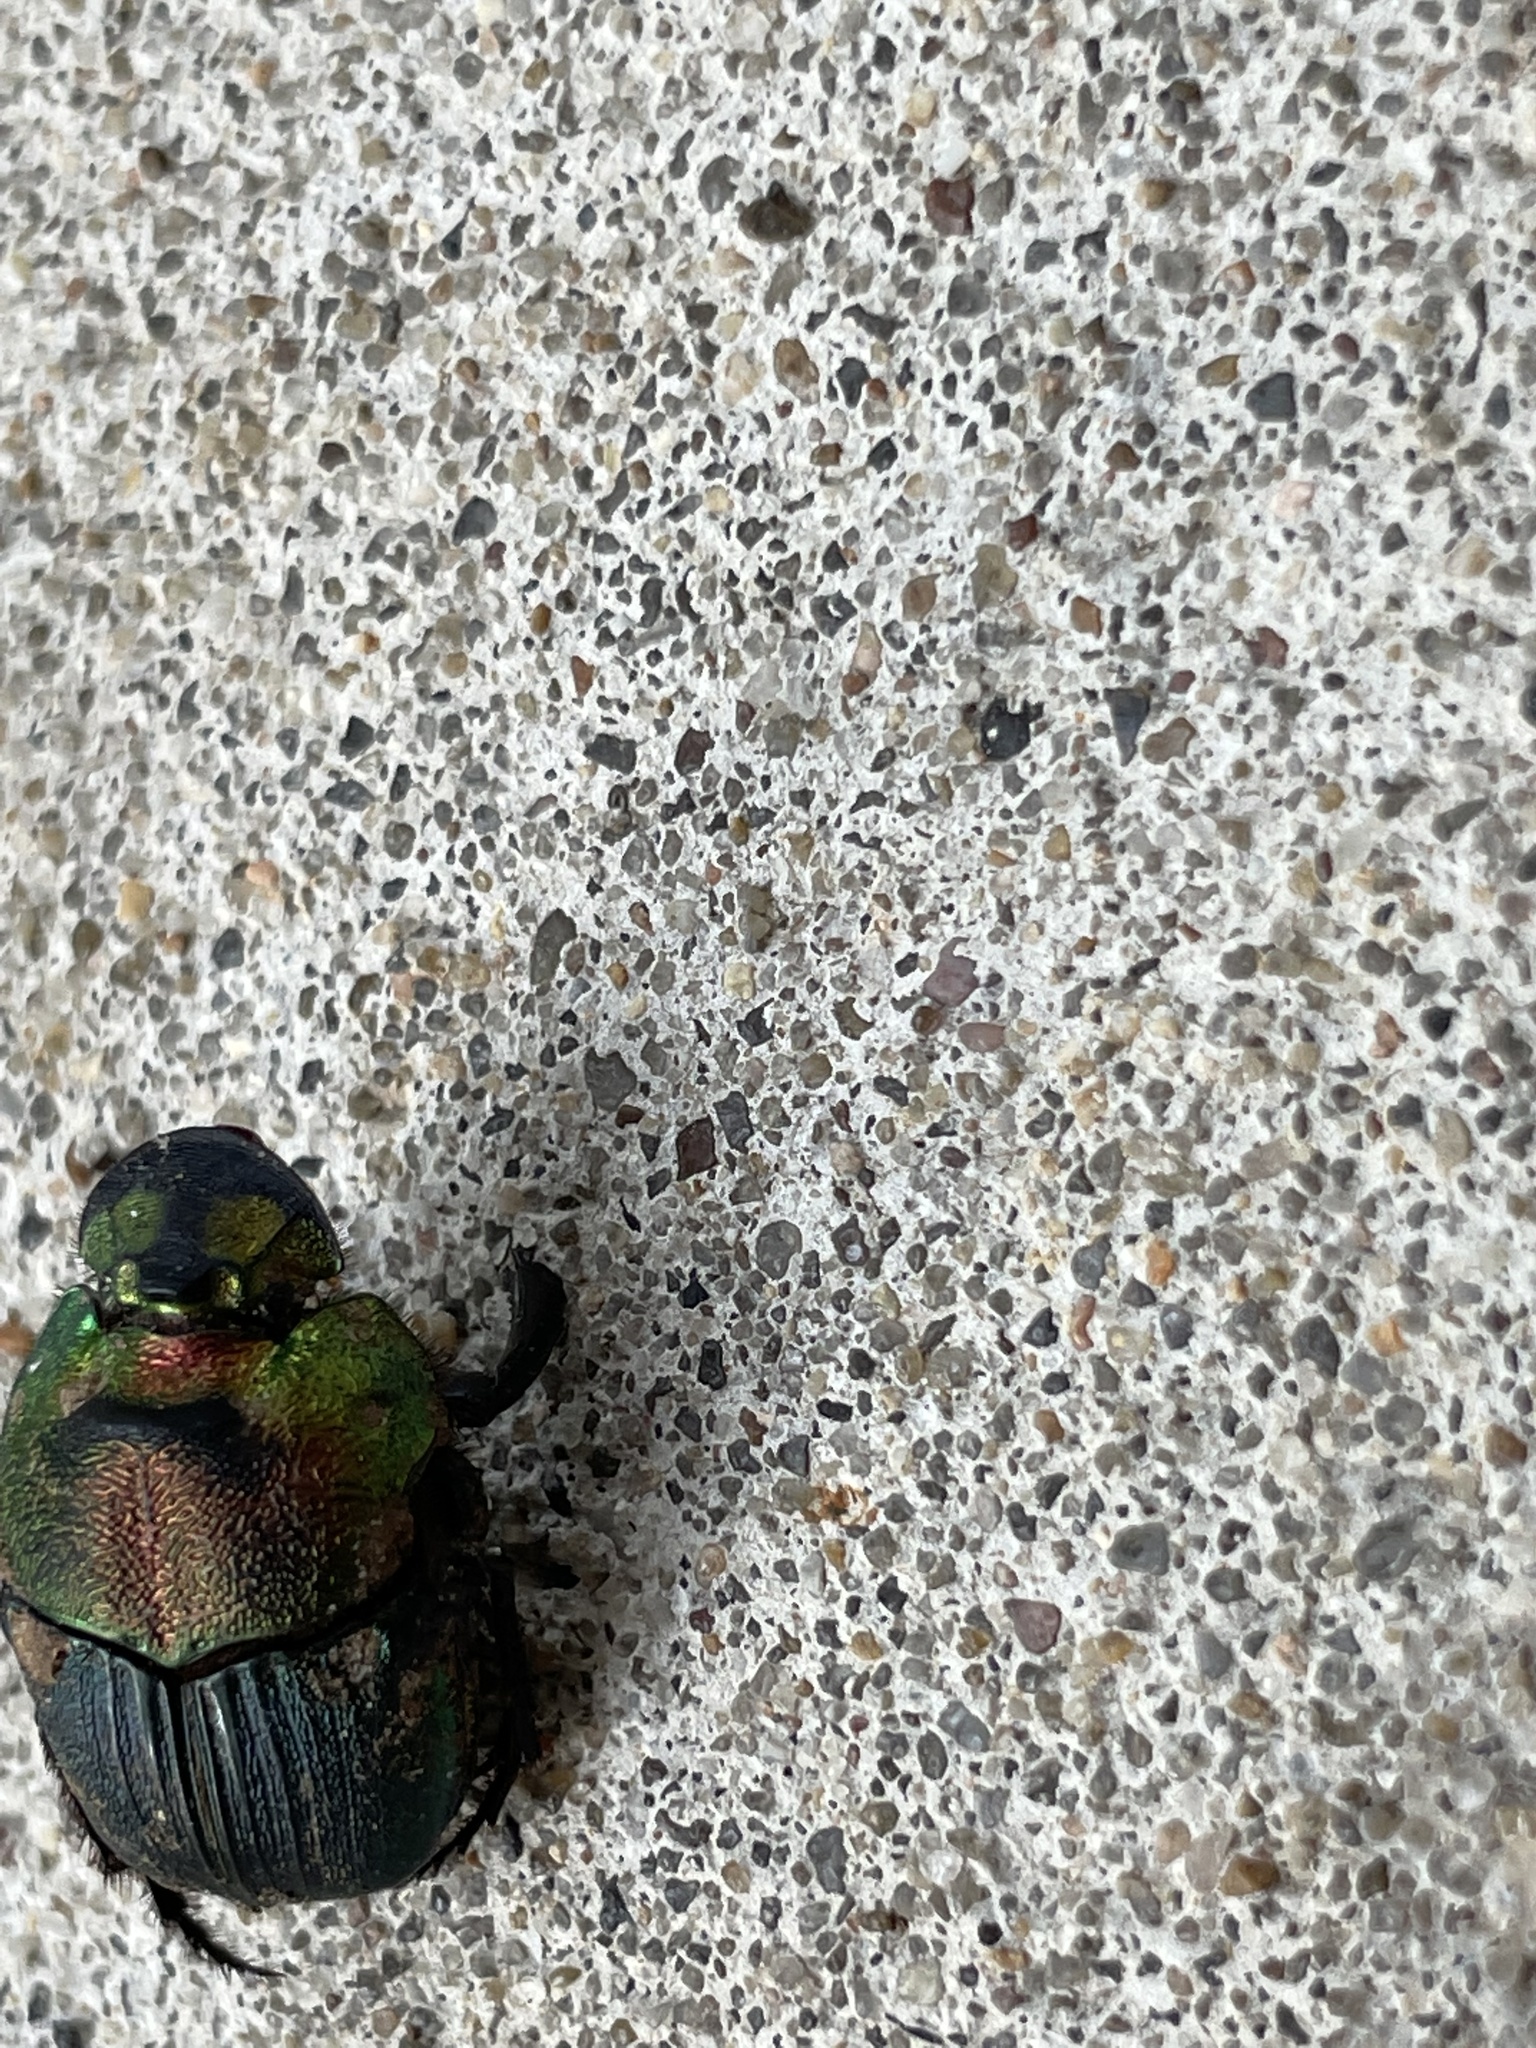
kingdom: Animalia
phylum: Arthropoda
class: Insecta
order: Coleoptera
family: Scarabaeidae
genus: Phanaeus
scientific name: Phanaeus vindex
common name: Rainbow scarab
